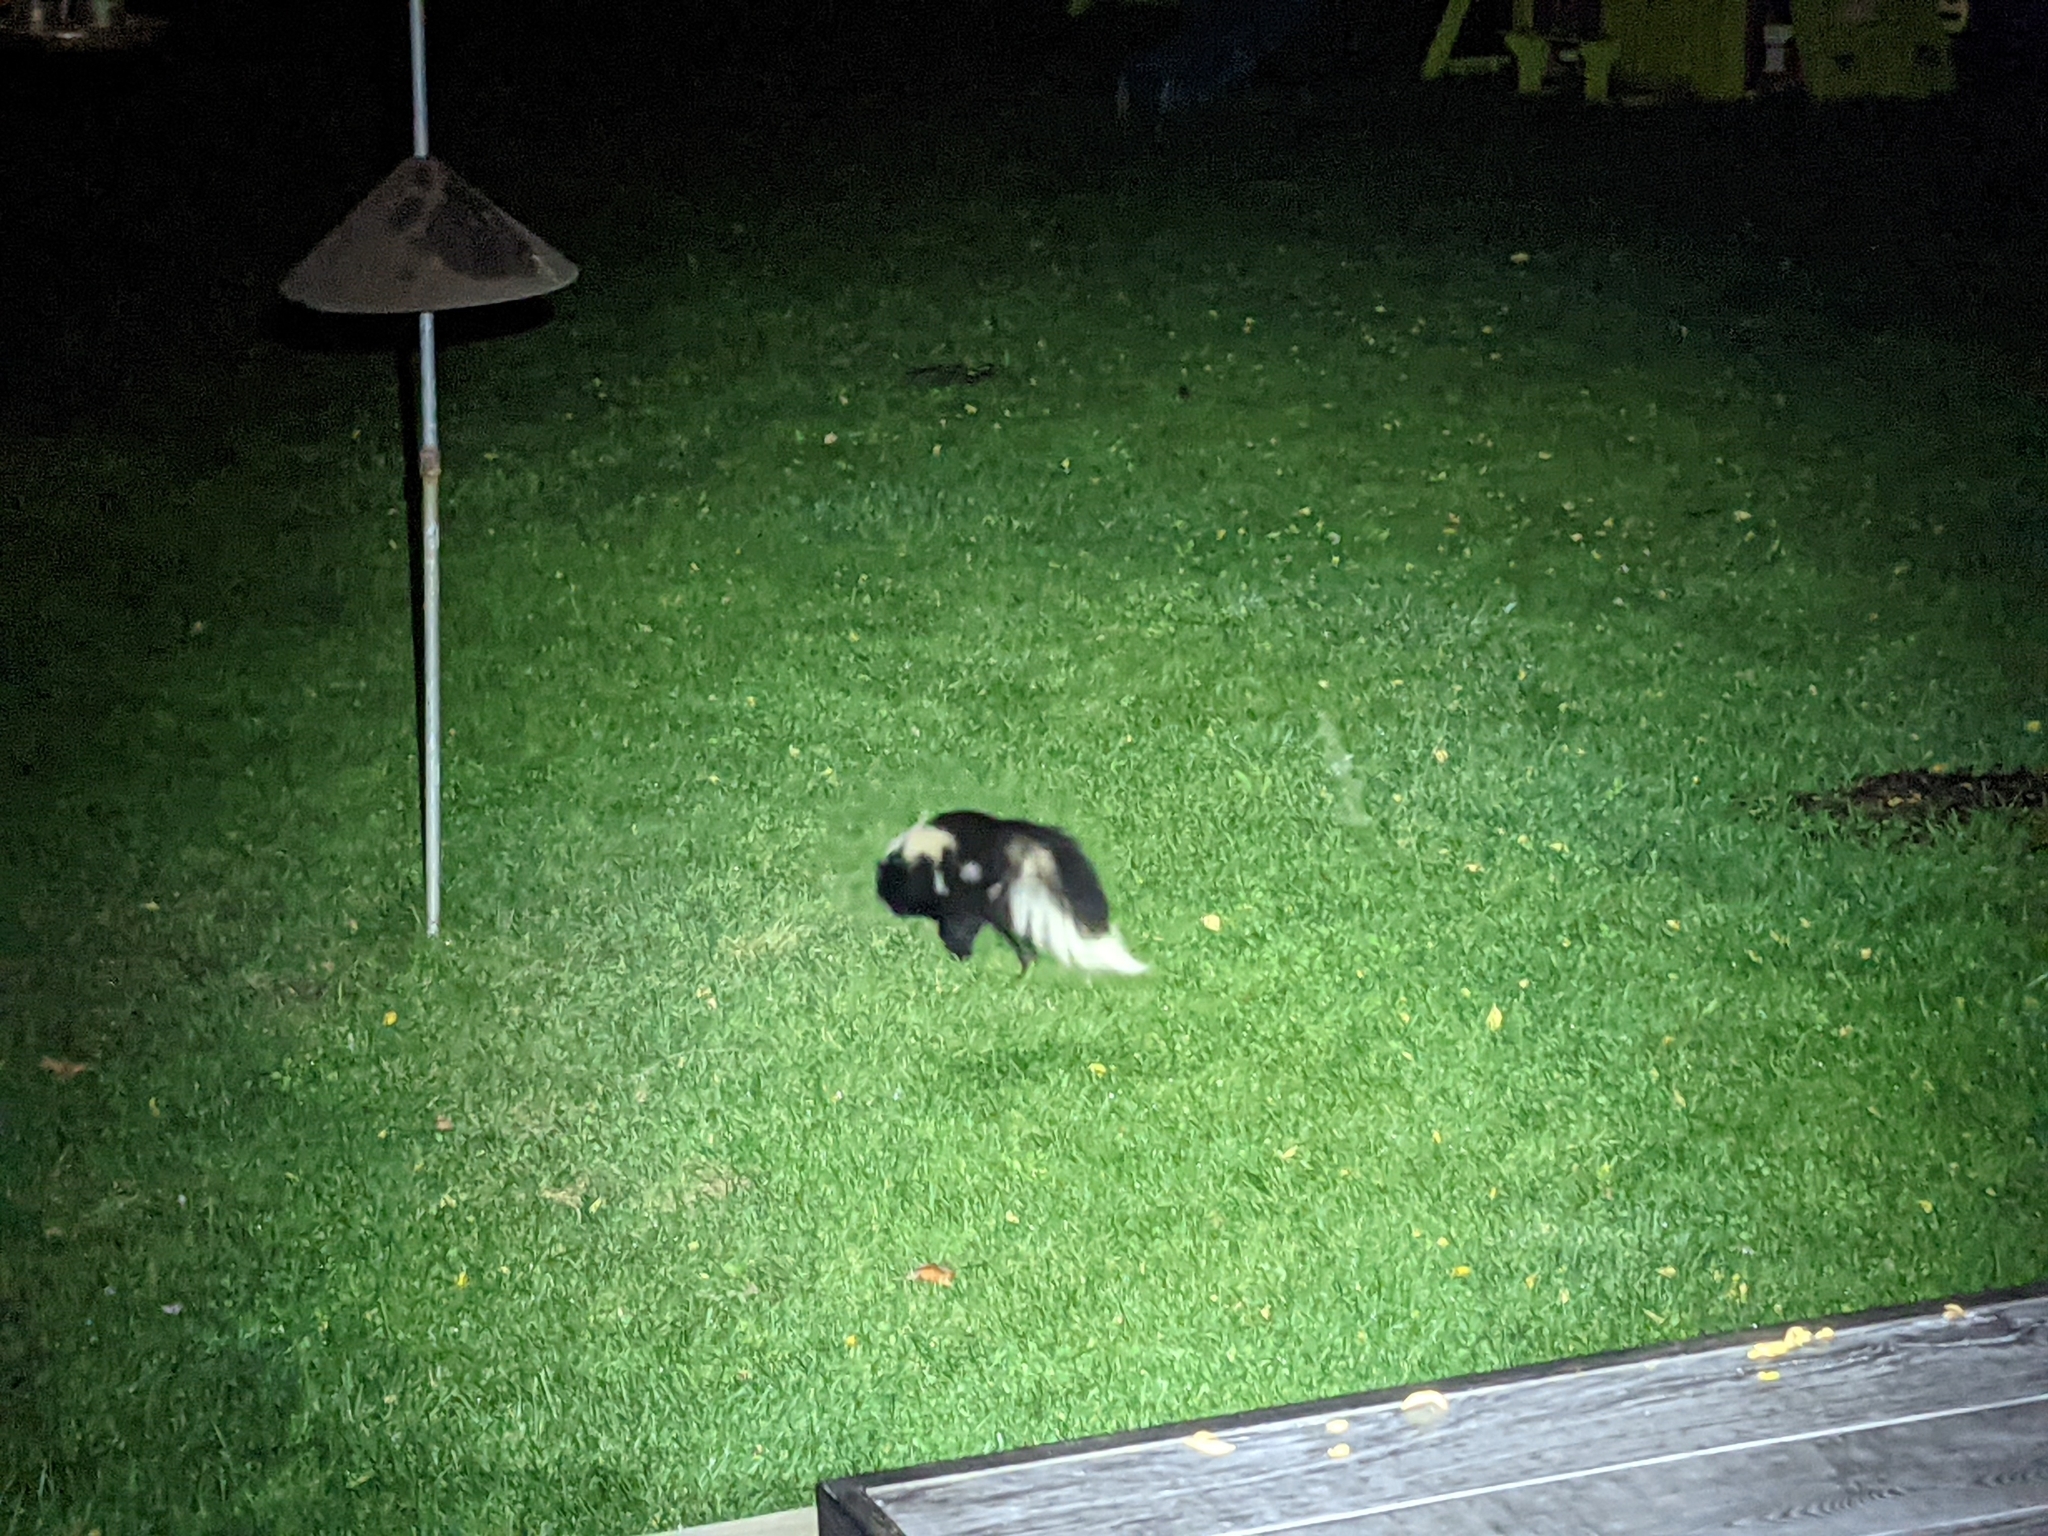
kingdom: Animalia
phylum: Chordata
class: Mammalia
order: Carnivora
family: Mephitidae
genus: Mephitis
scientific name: Mephitis mephitis
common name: Striped skunk
